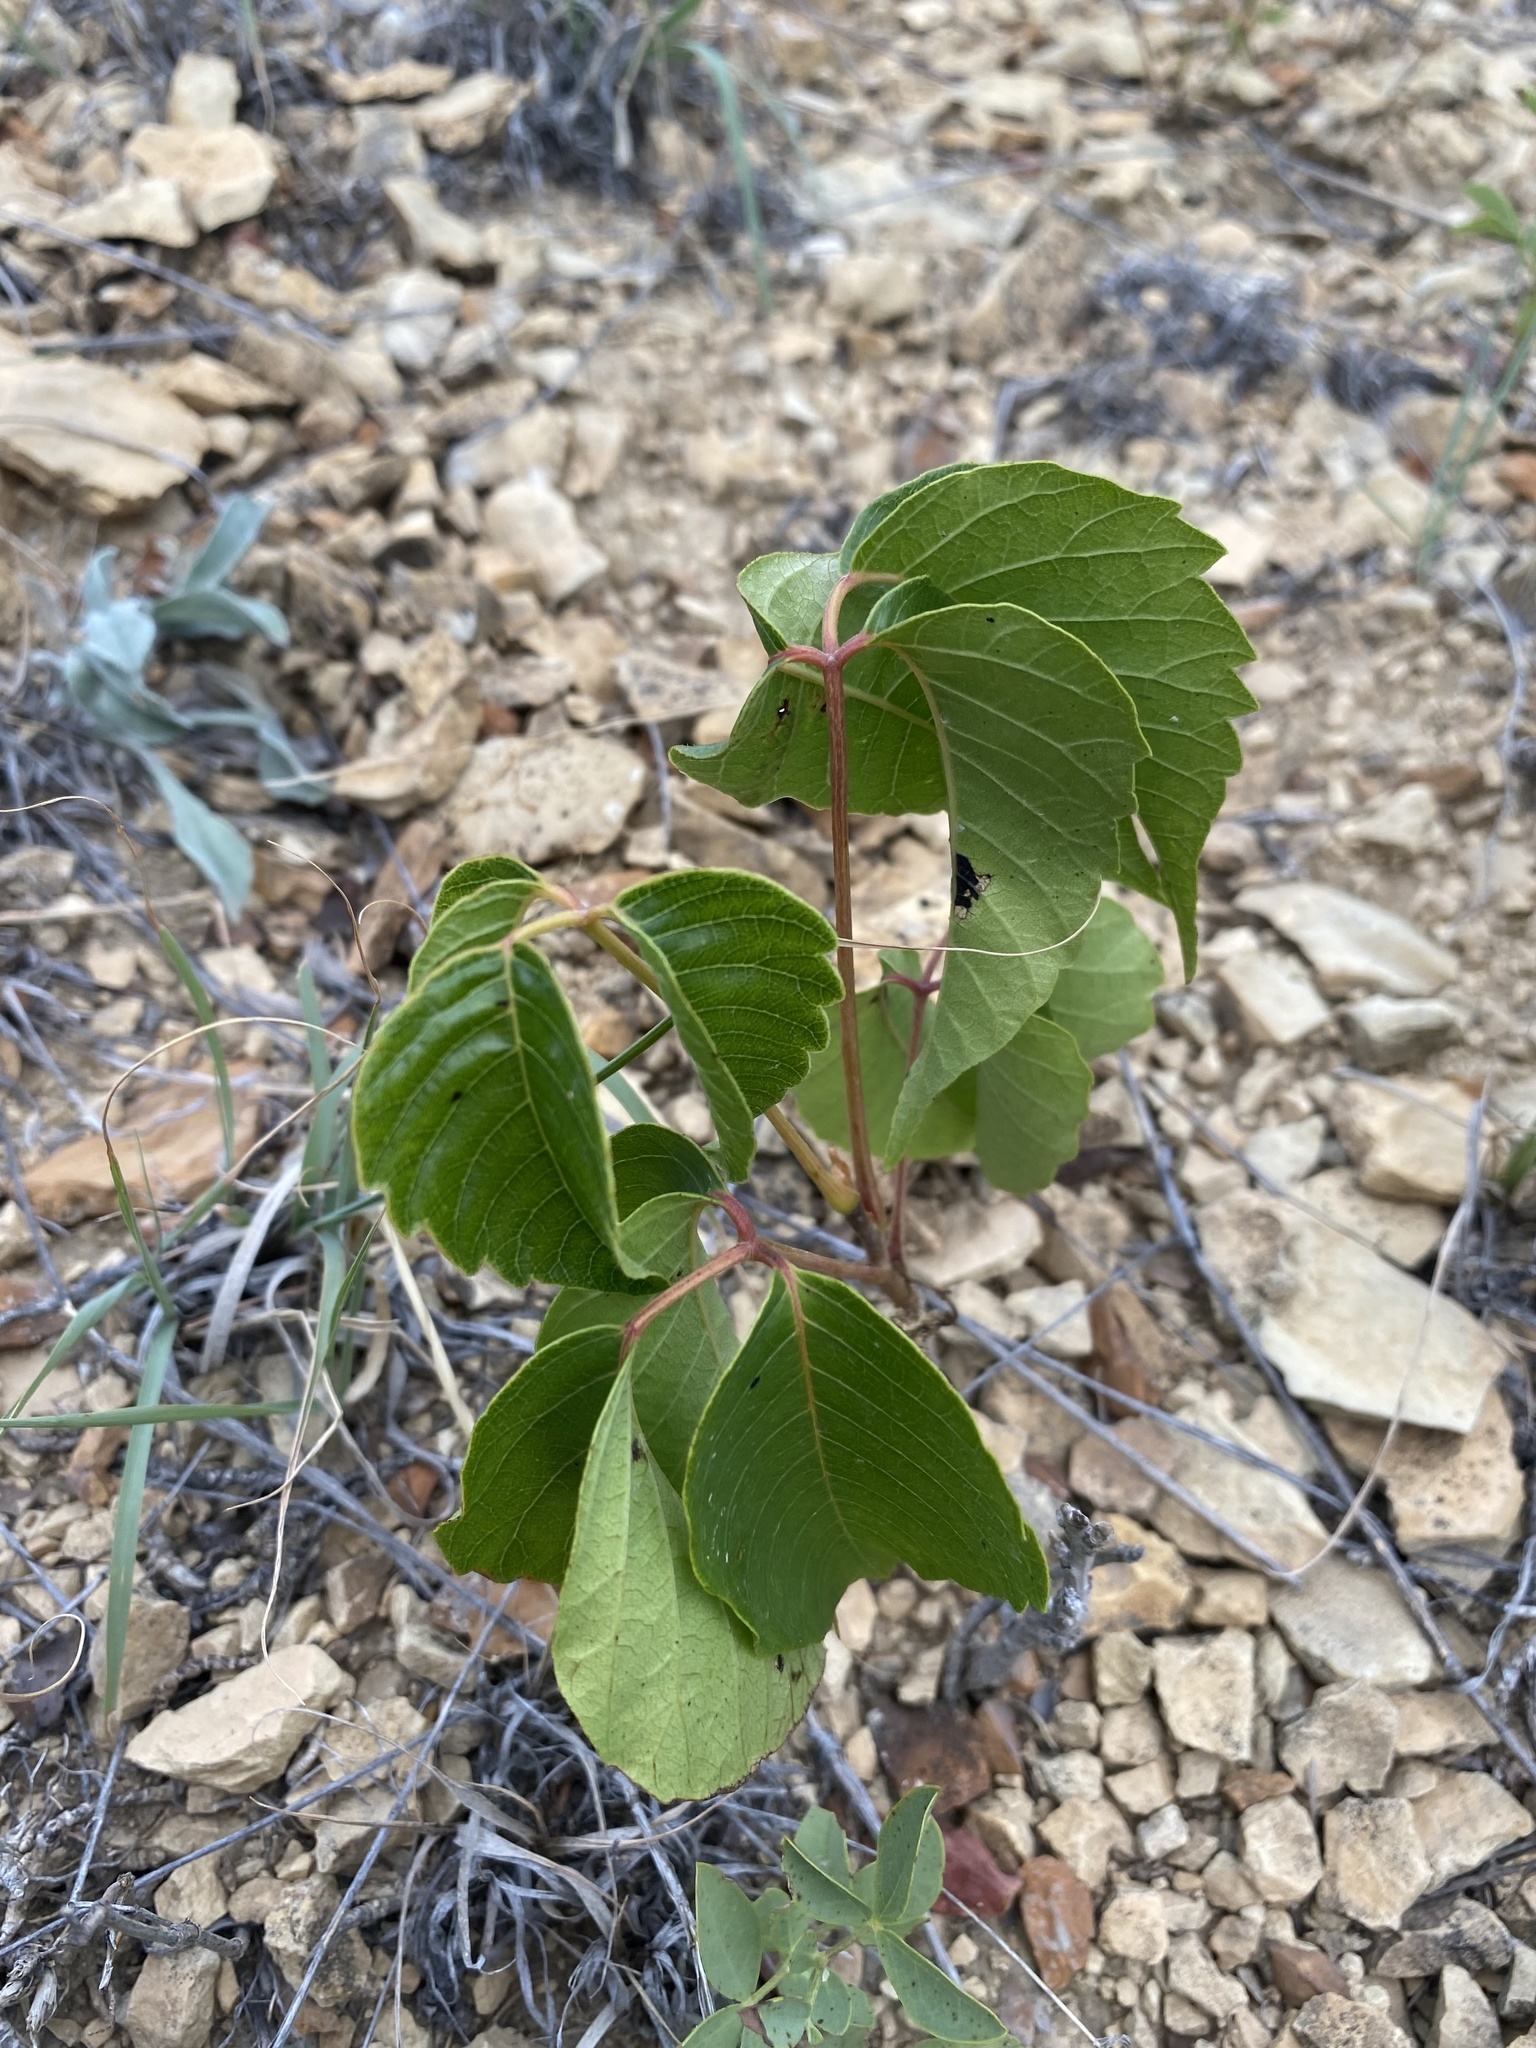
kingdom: Plantae
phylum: Tracheophyta
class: Magnoliopsida
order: Sapindales
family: Anacardiaceae
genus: Toxicodendron
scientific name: Toxicodendron rydbergii
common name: Rydberg's poison-ivy
